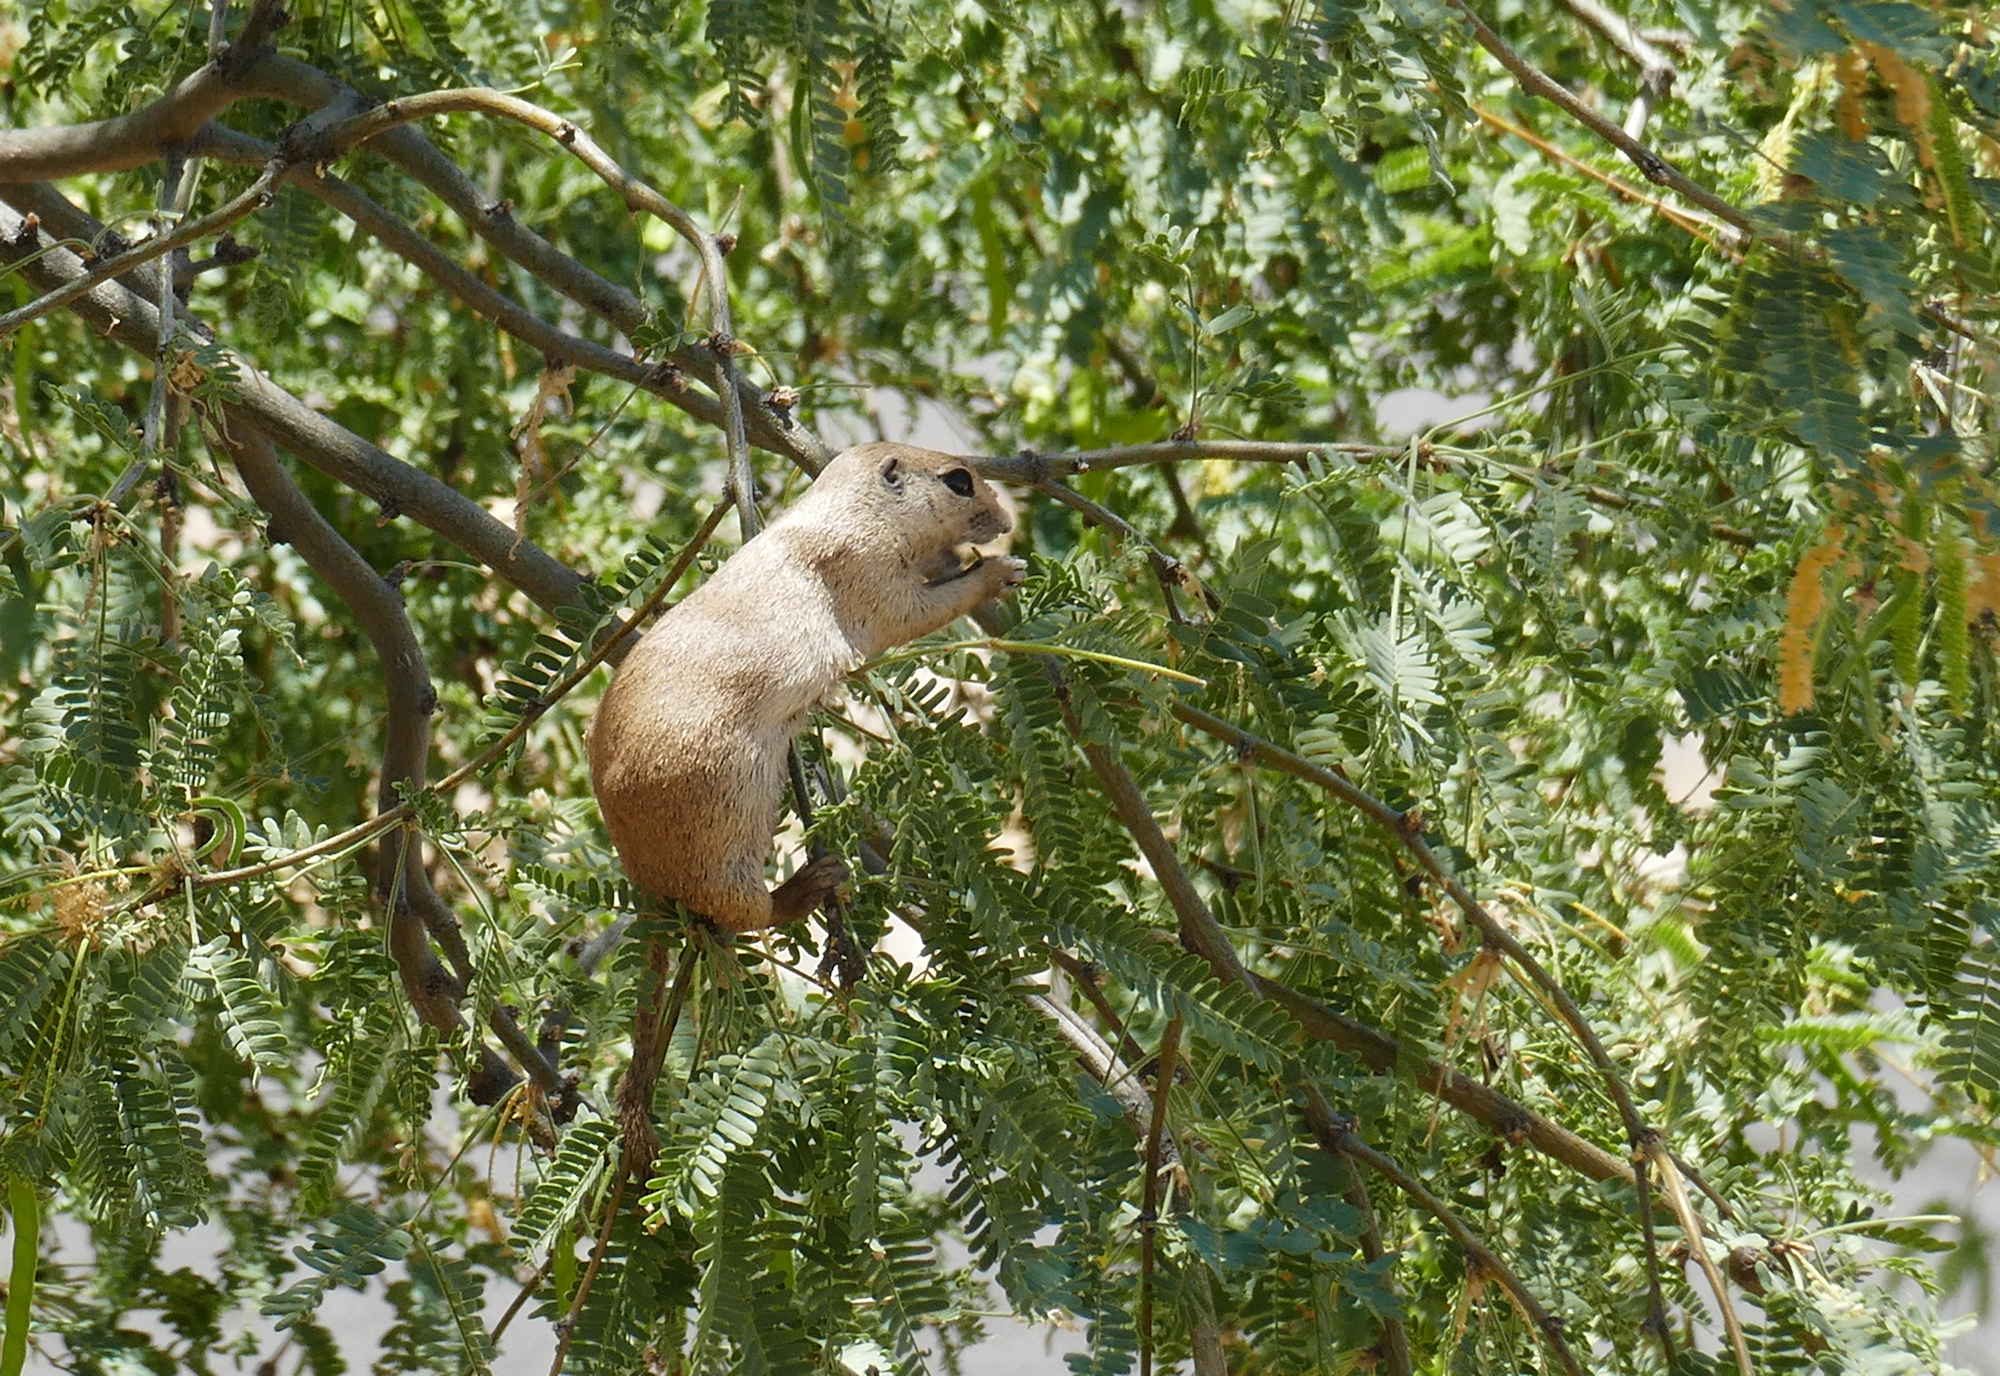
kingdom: Animalia
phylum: Chordata
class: Mammalia
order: Rodentia
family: Sciuridae
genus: Xerospermophilus
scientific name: Xerospermophilus tereticaudus
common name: Round-tailed ground squirrel
